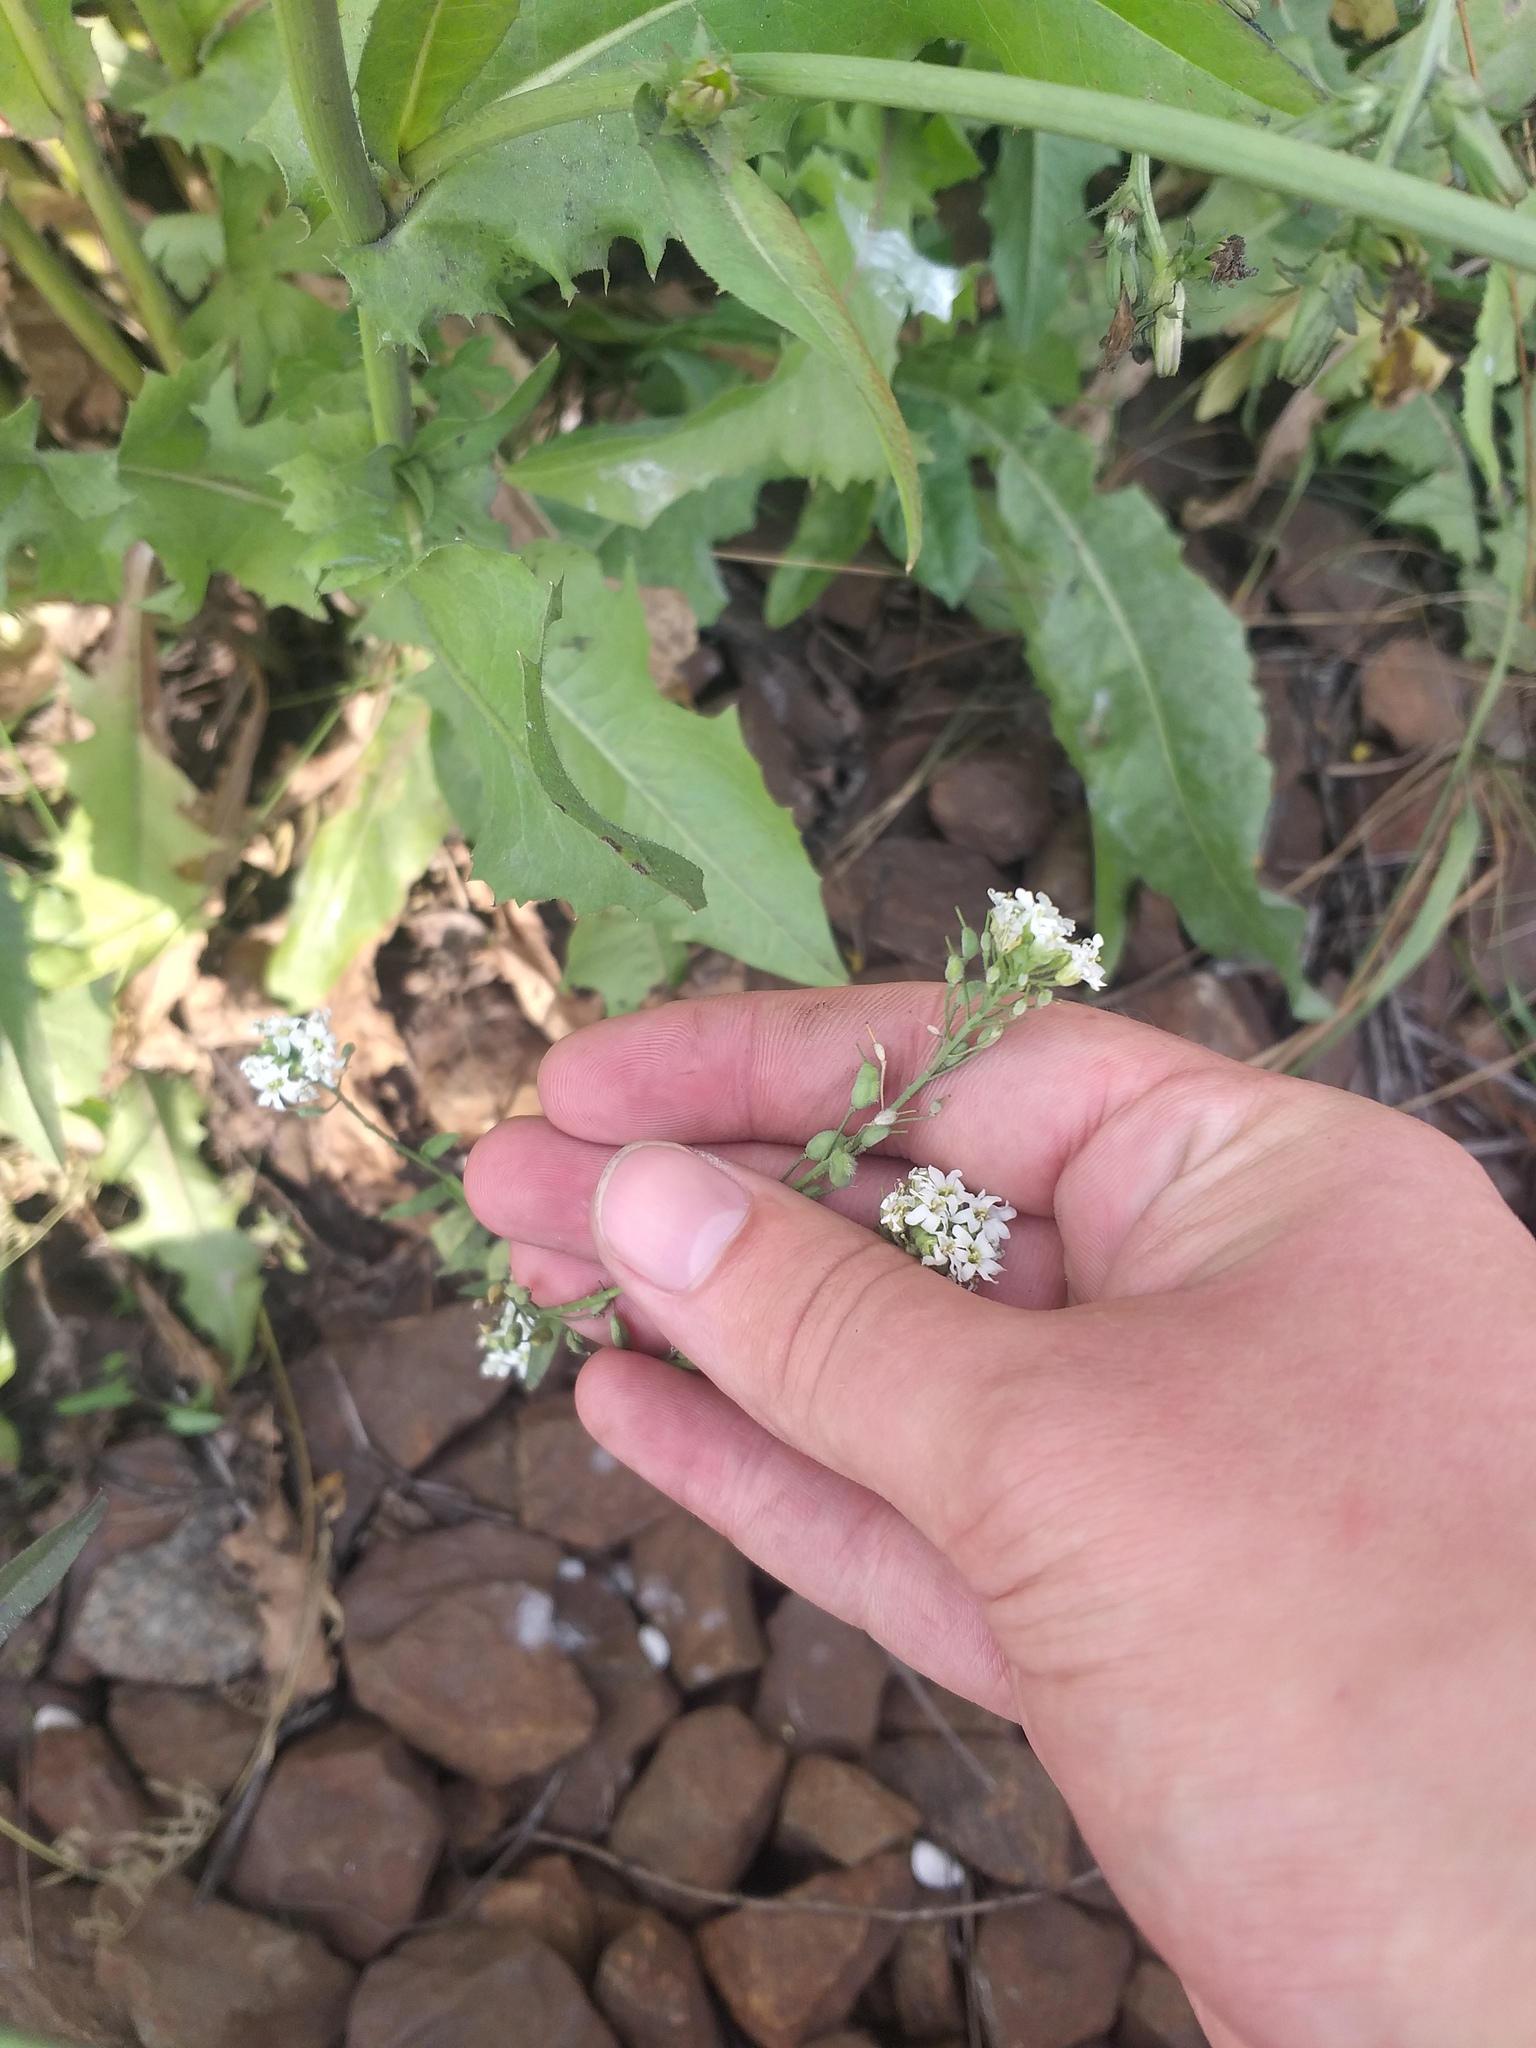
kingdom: Plantae
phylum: Tracheophyta
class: Magnoliopsida
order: Brassicales
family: Brassicaceae
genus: Berteroa
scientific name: Berteroa incana
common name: Hoary alison
